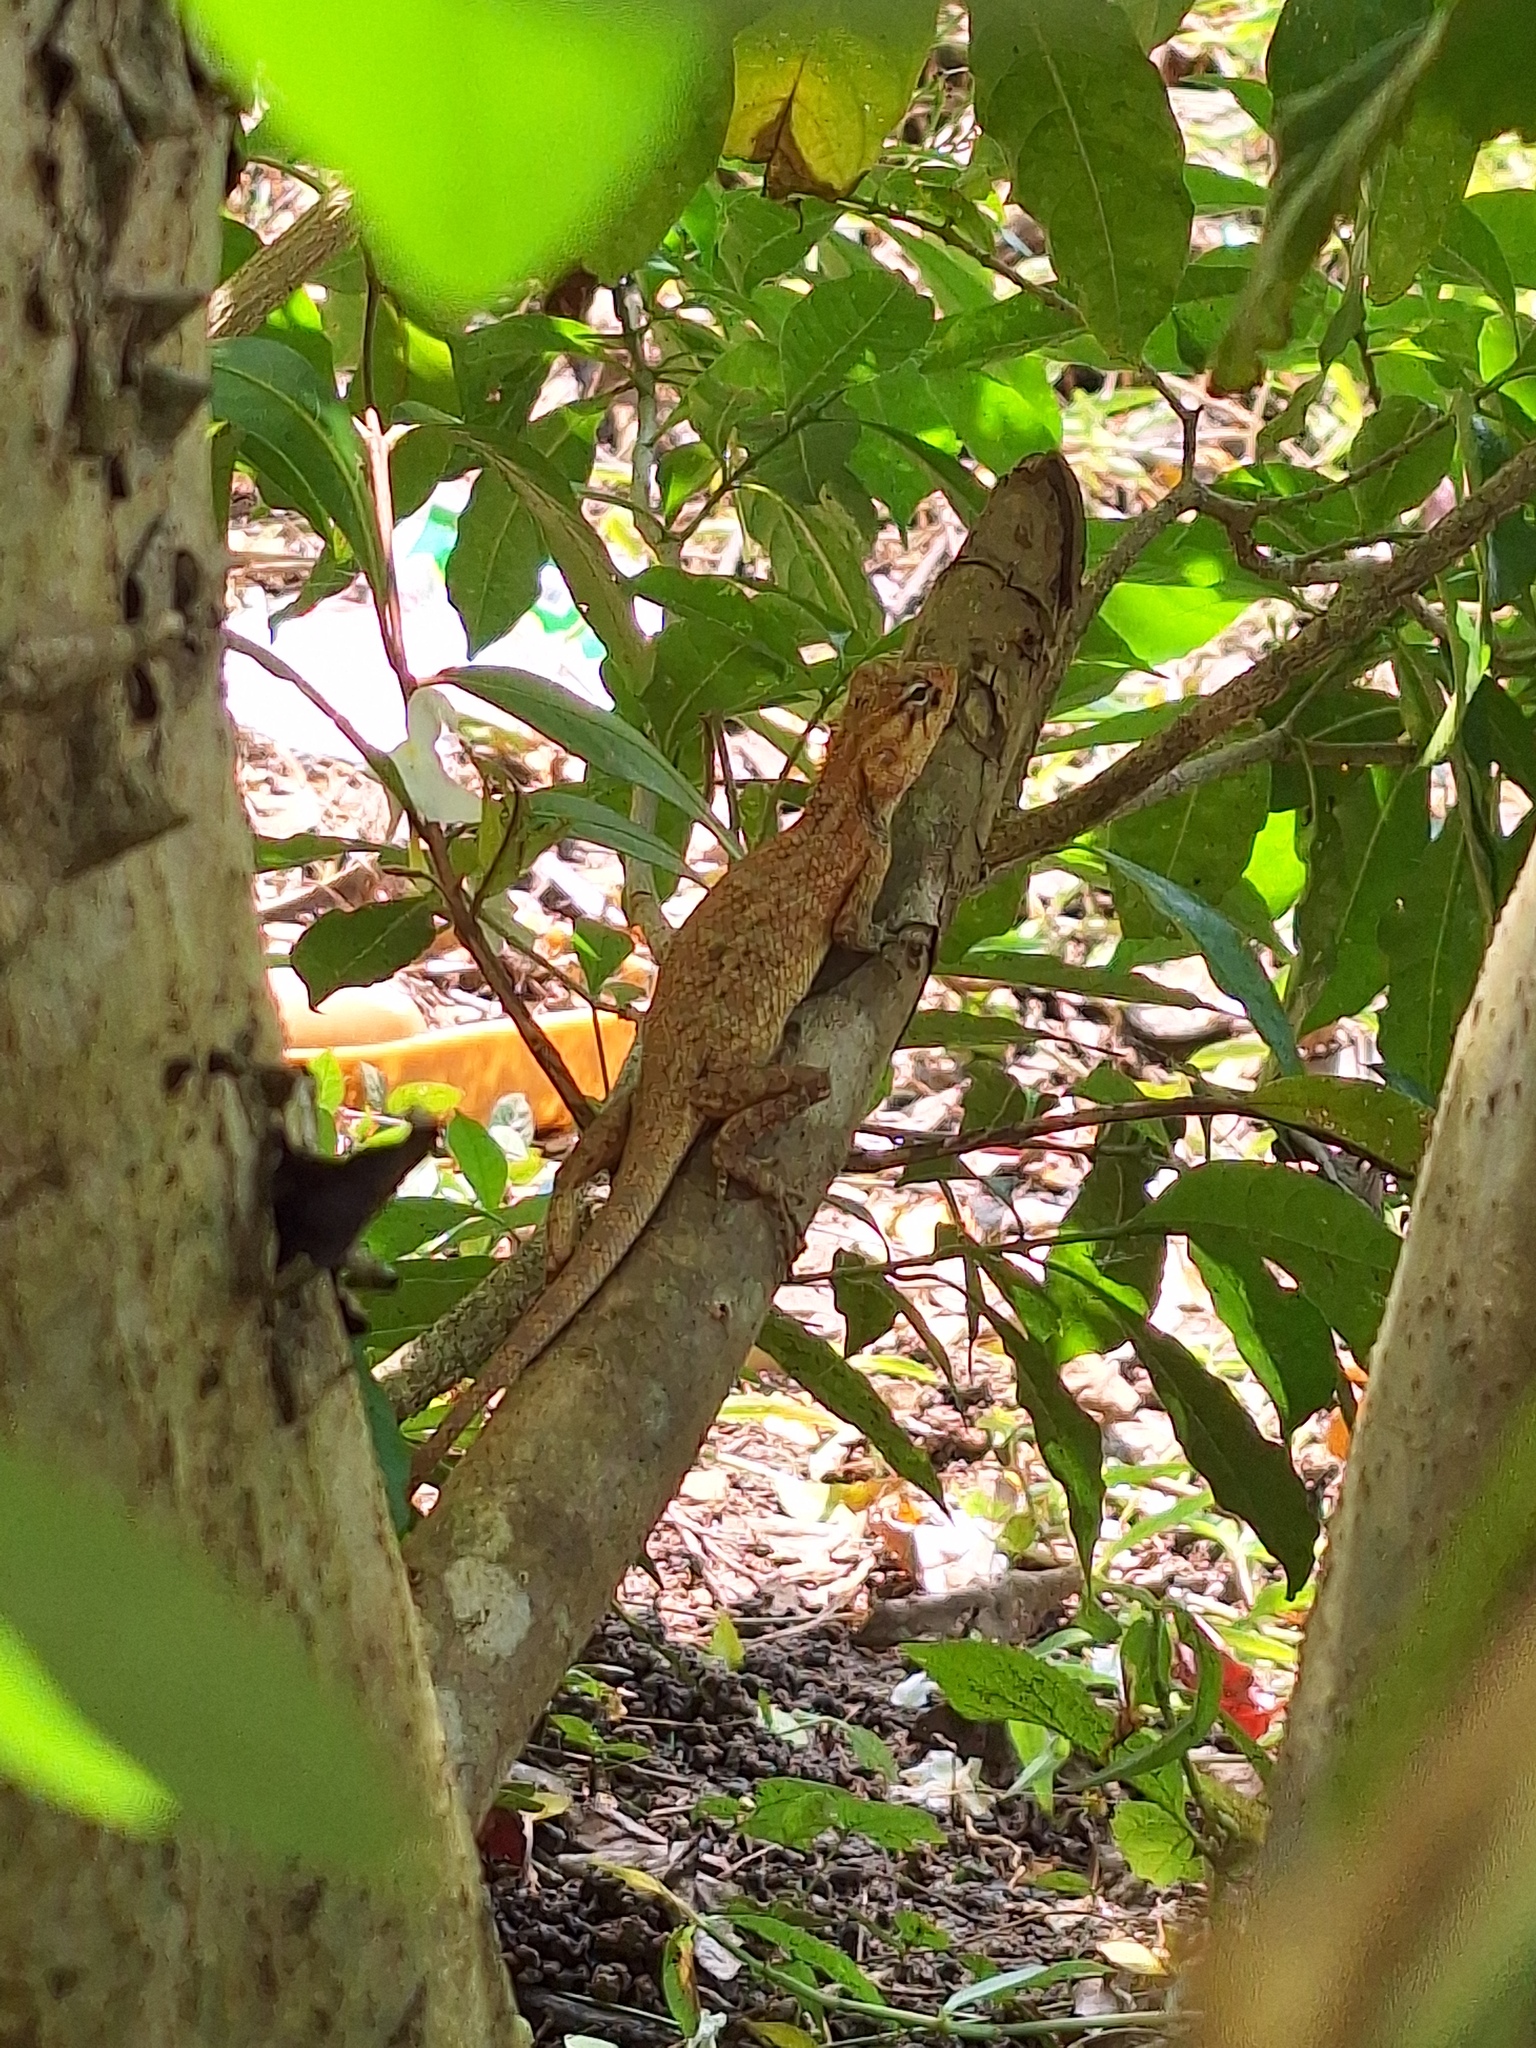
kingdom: Animalia
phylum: Chordata
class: Squamata
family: Agamidae
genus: Calotes
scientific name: Calotes versicolor
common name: Oriental garden lizard
